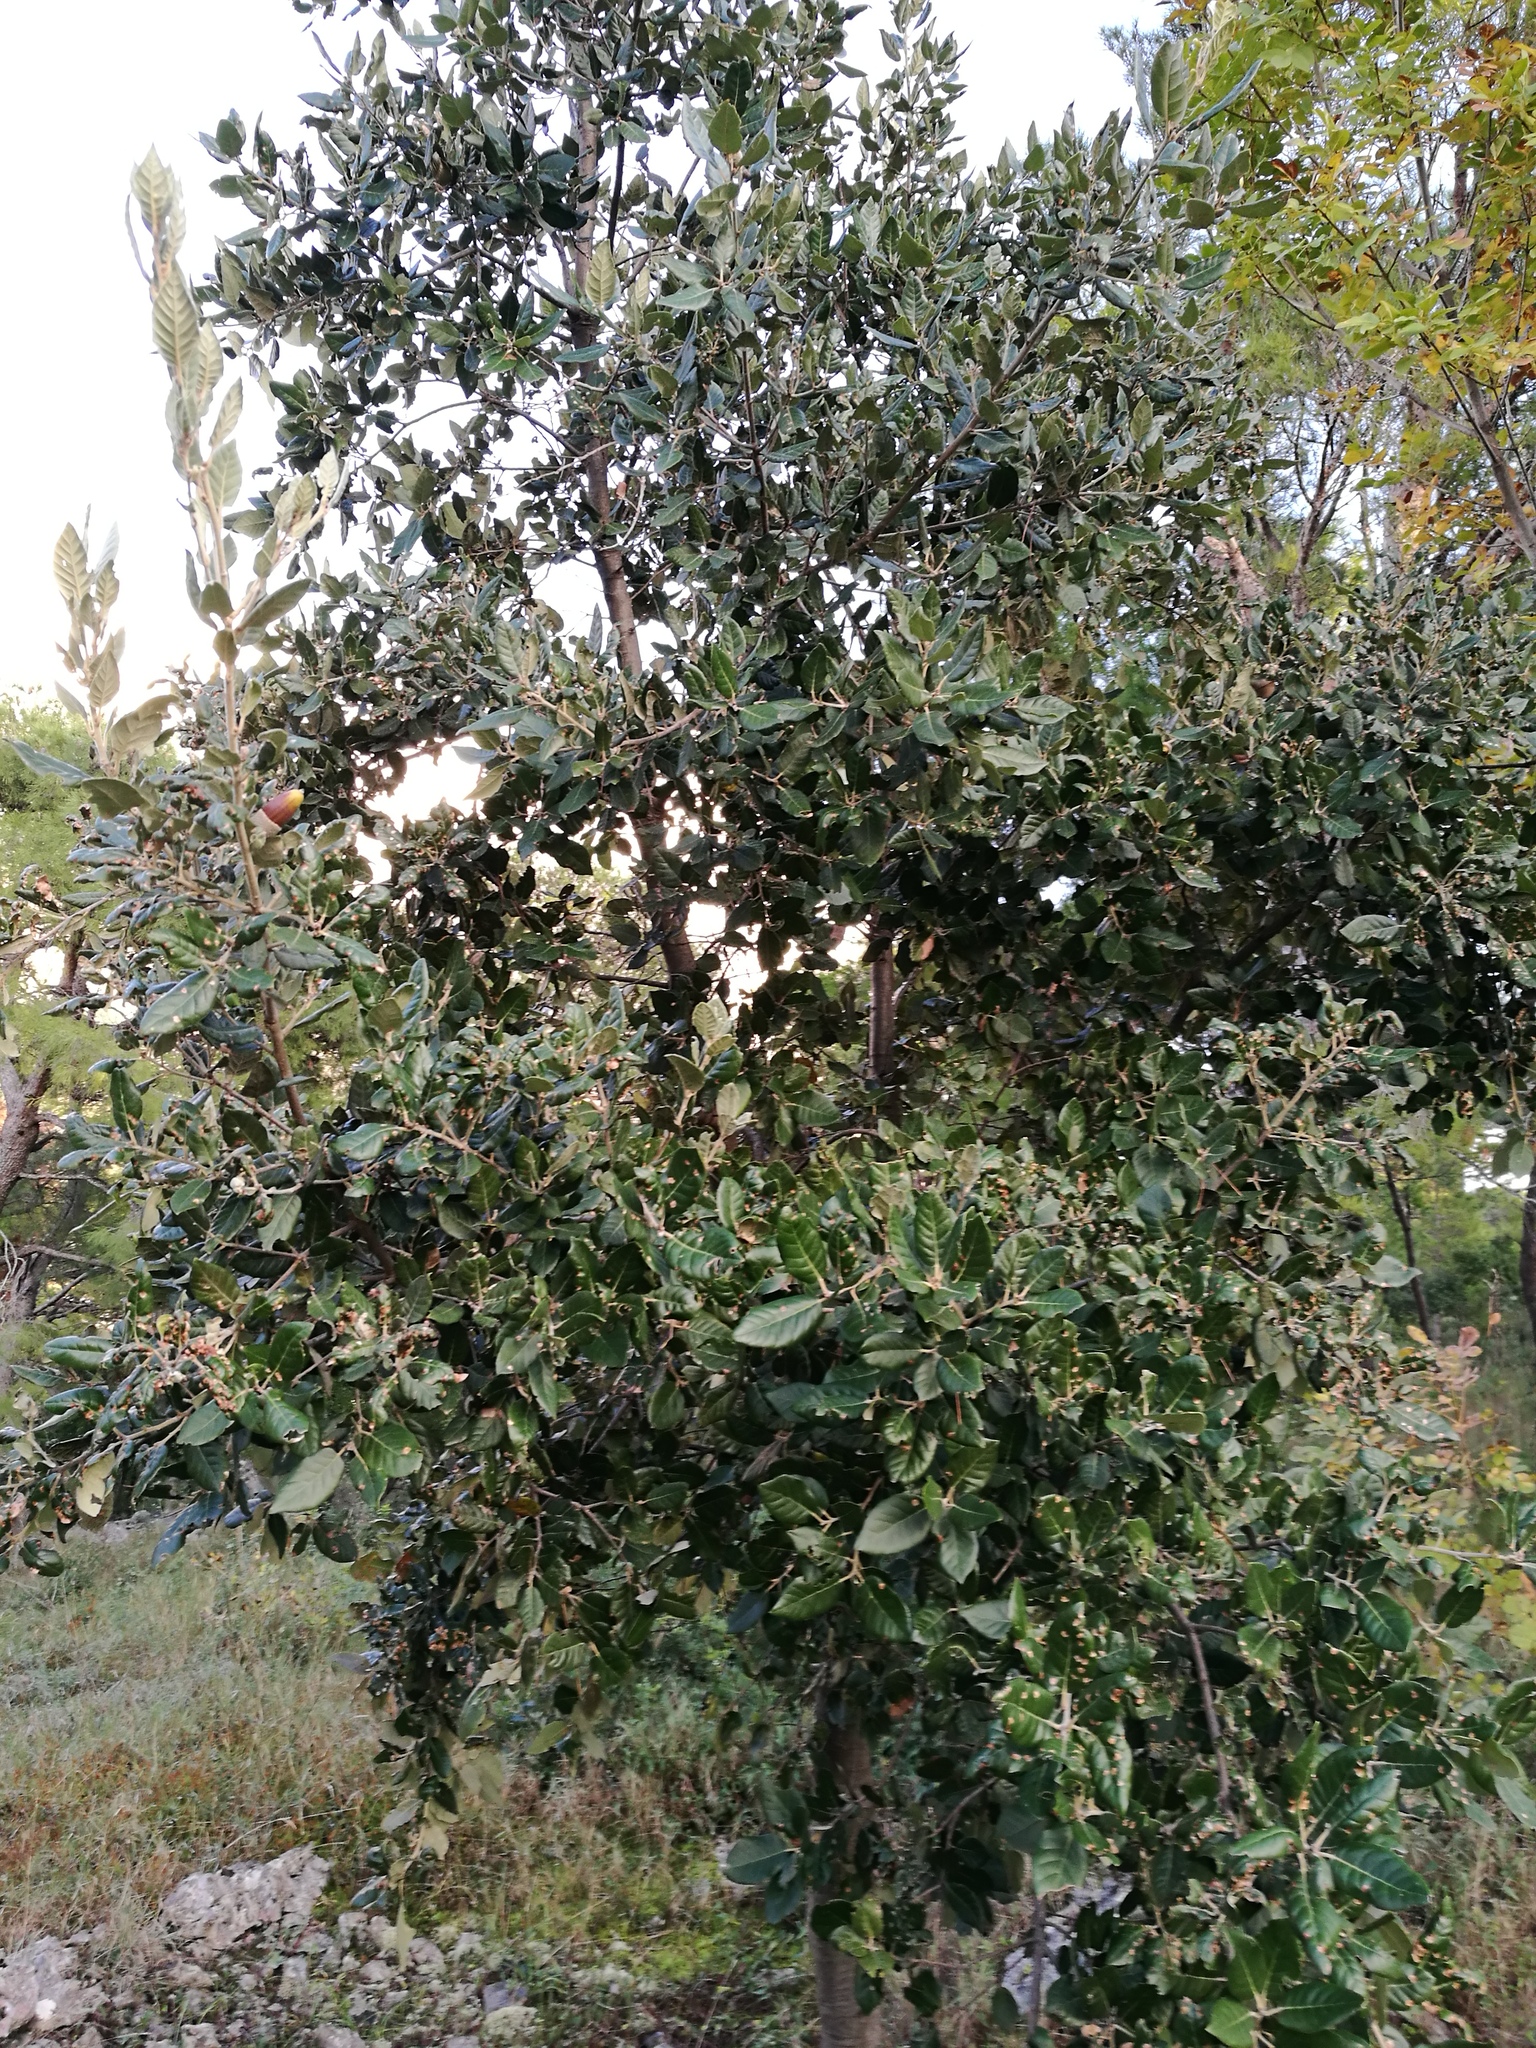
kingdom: Plantae
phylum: Tracheophyta
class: Magnoliopsida
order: Fagales
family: Fagaceae
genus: Quercus
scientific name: Quercus ilex
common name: Evergreen oak
